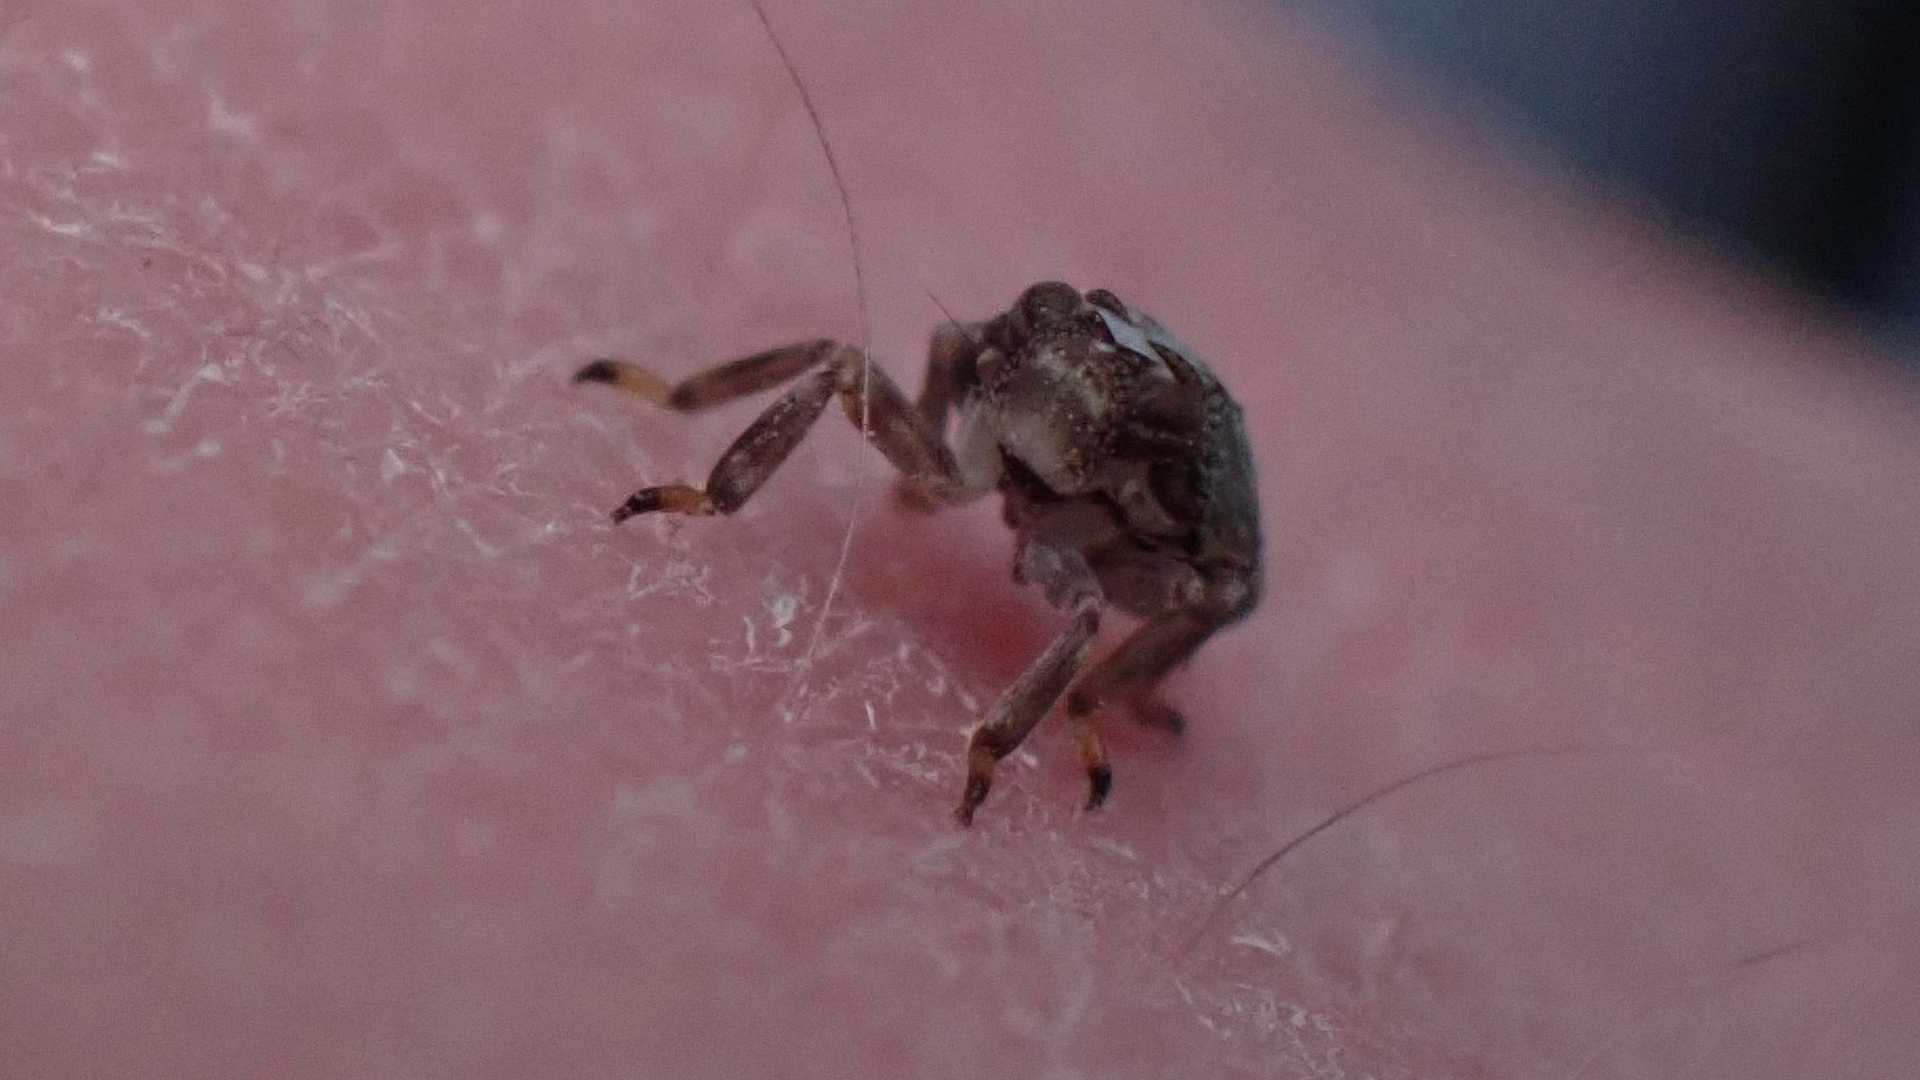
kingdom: Animalia
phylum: Arthropoda
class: Insecta
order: Hemiptera
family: Issidae
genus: Issus
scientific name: Issus coleoptratus
